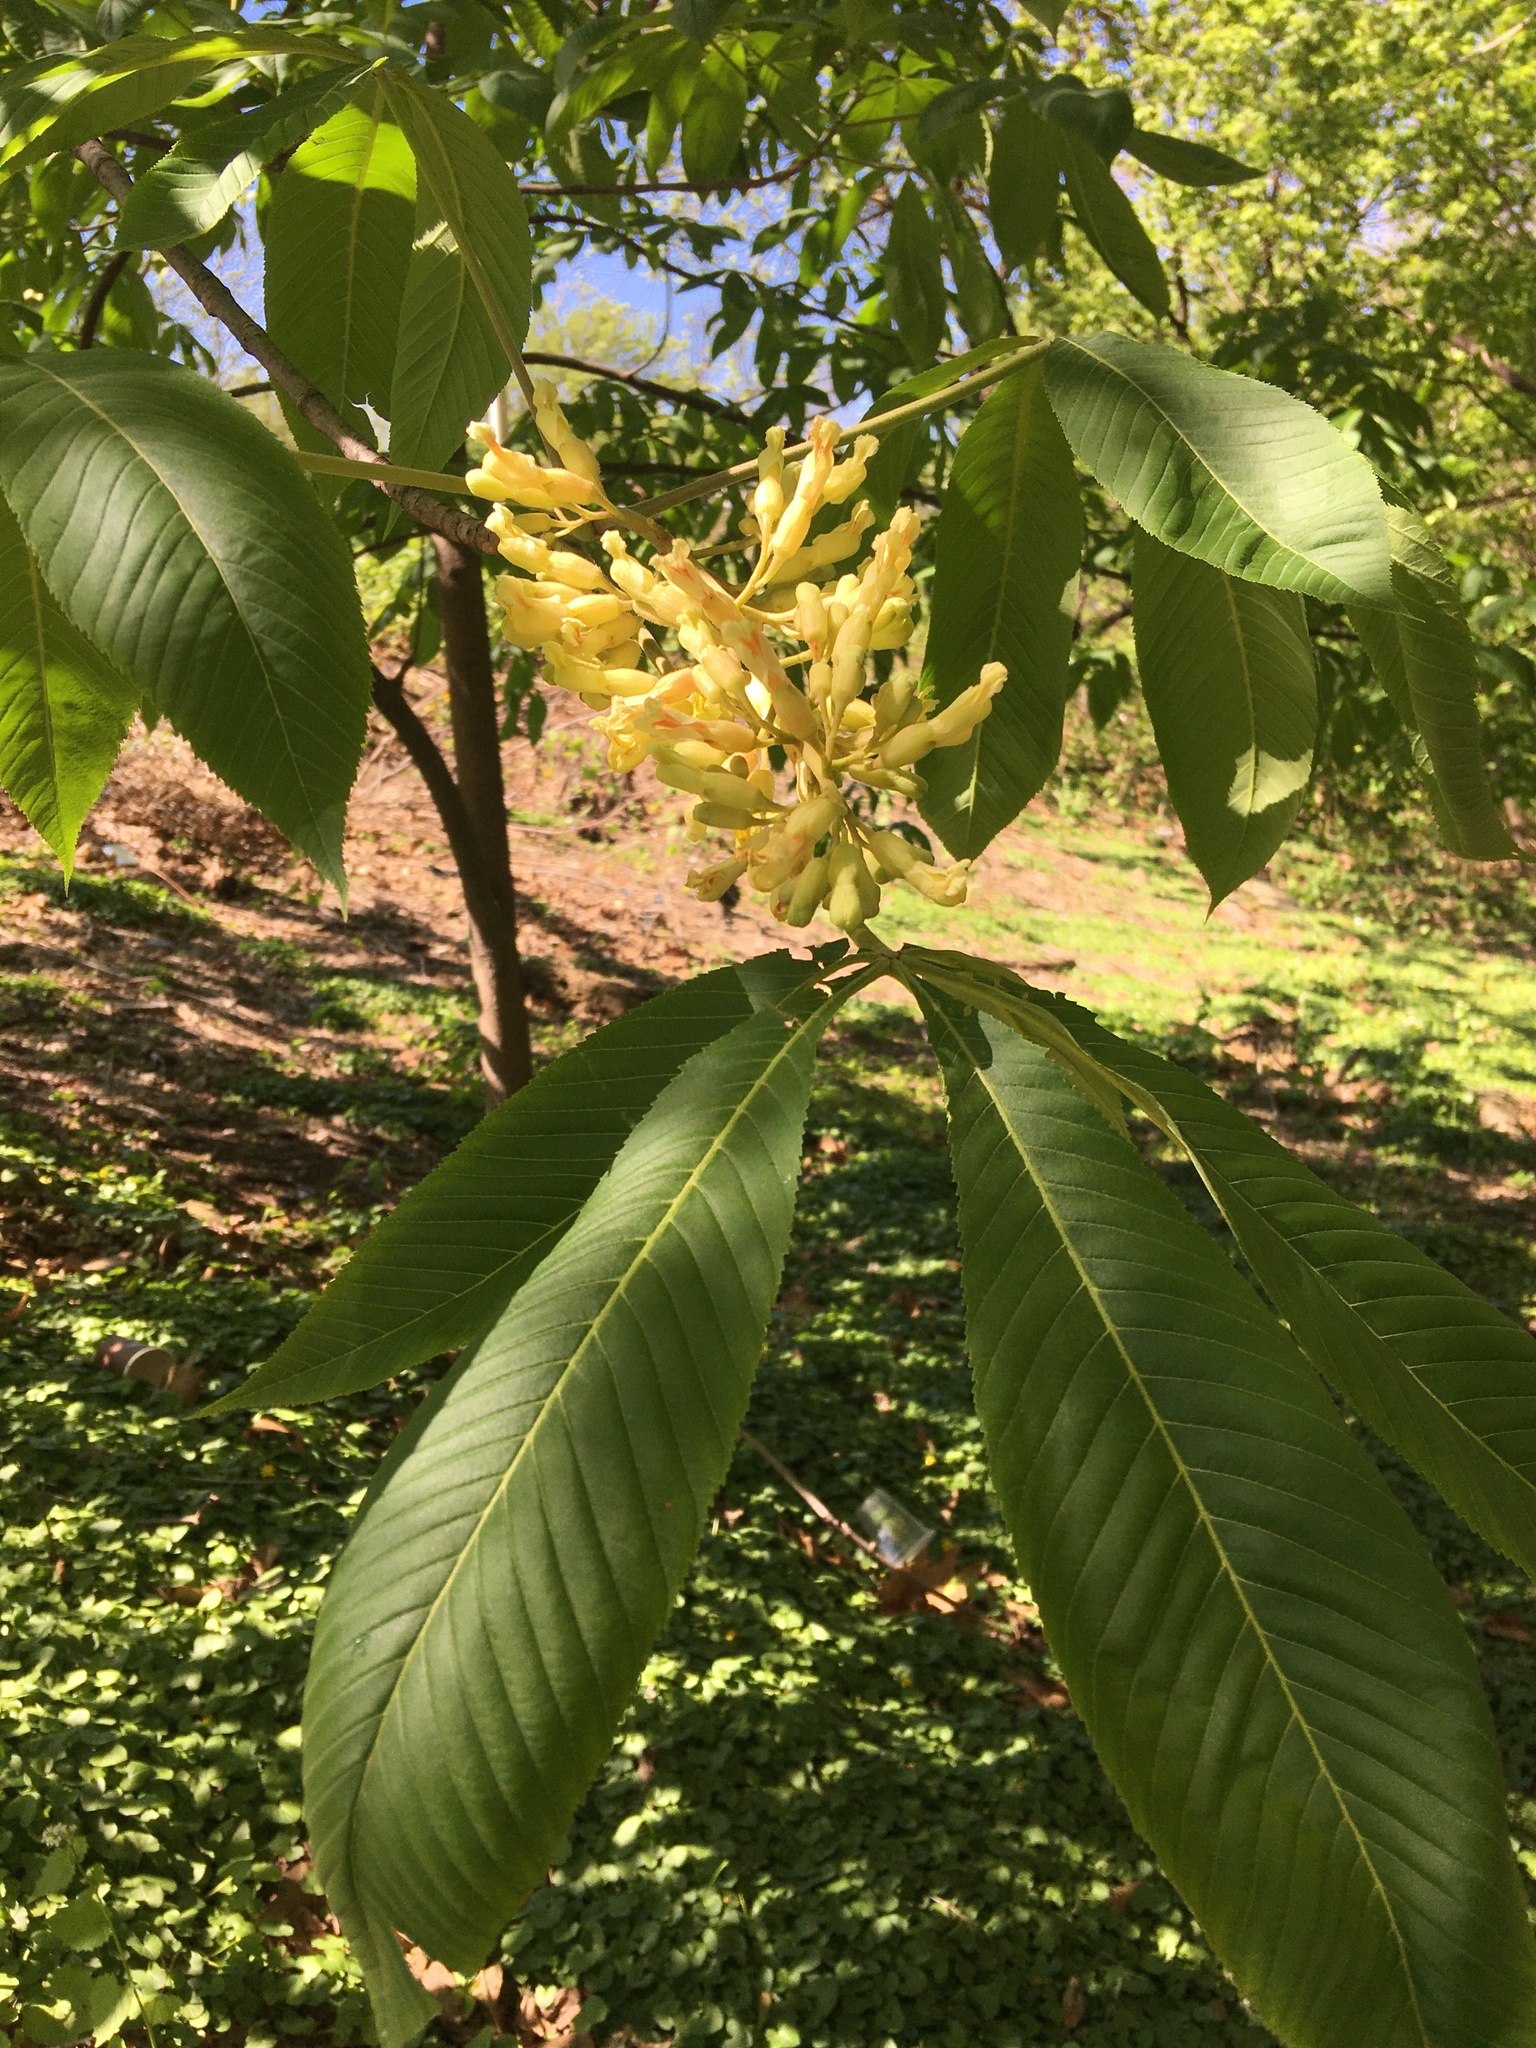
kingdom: Plantae
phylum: Tracheophyta
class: Magnoliopsida
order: Sapindales
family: Sapindaceae
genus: Aesculus
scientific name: Aesculus flava
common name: Yellow buckeye
